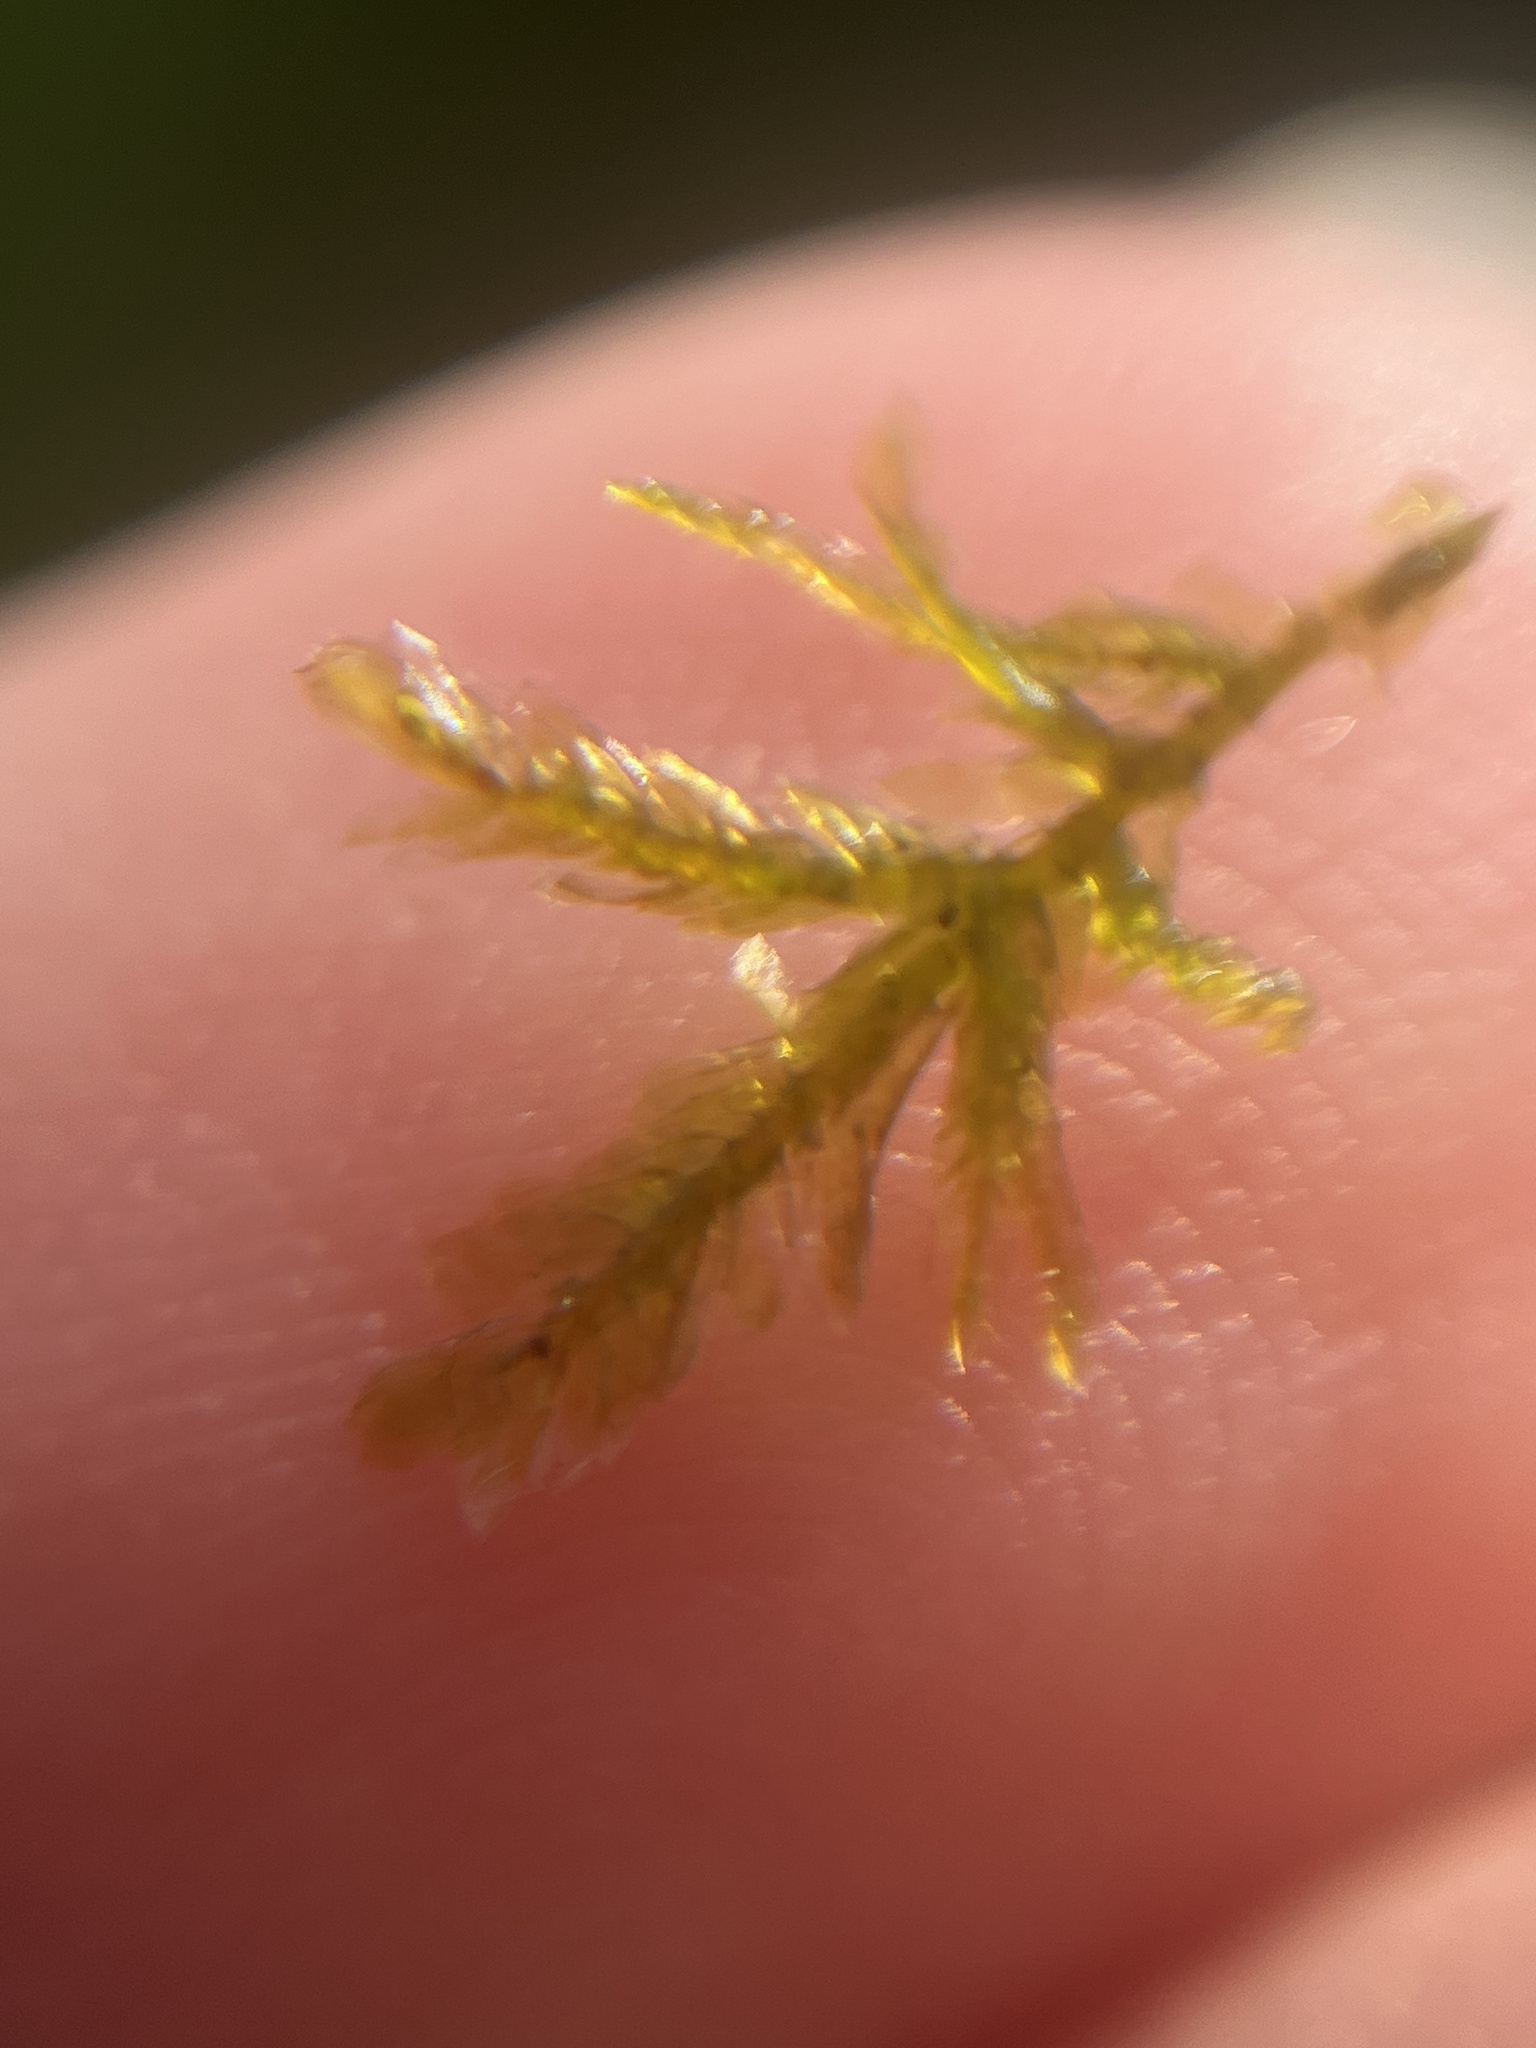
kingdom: Plantae
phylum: Bryophyta
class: Bryopsida
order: Hypnales
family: Neckeraceae
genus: Alleniella
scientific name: Alleniella complanata
